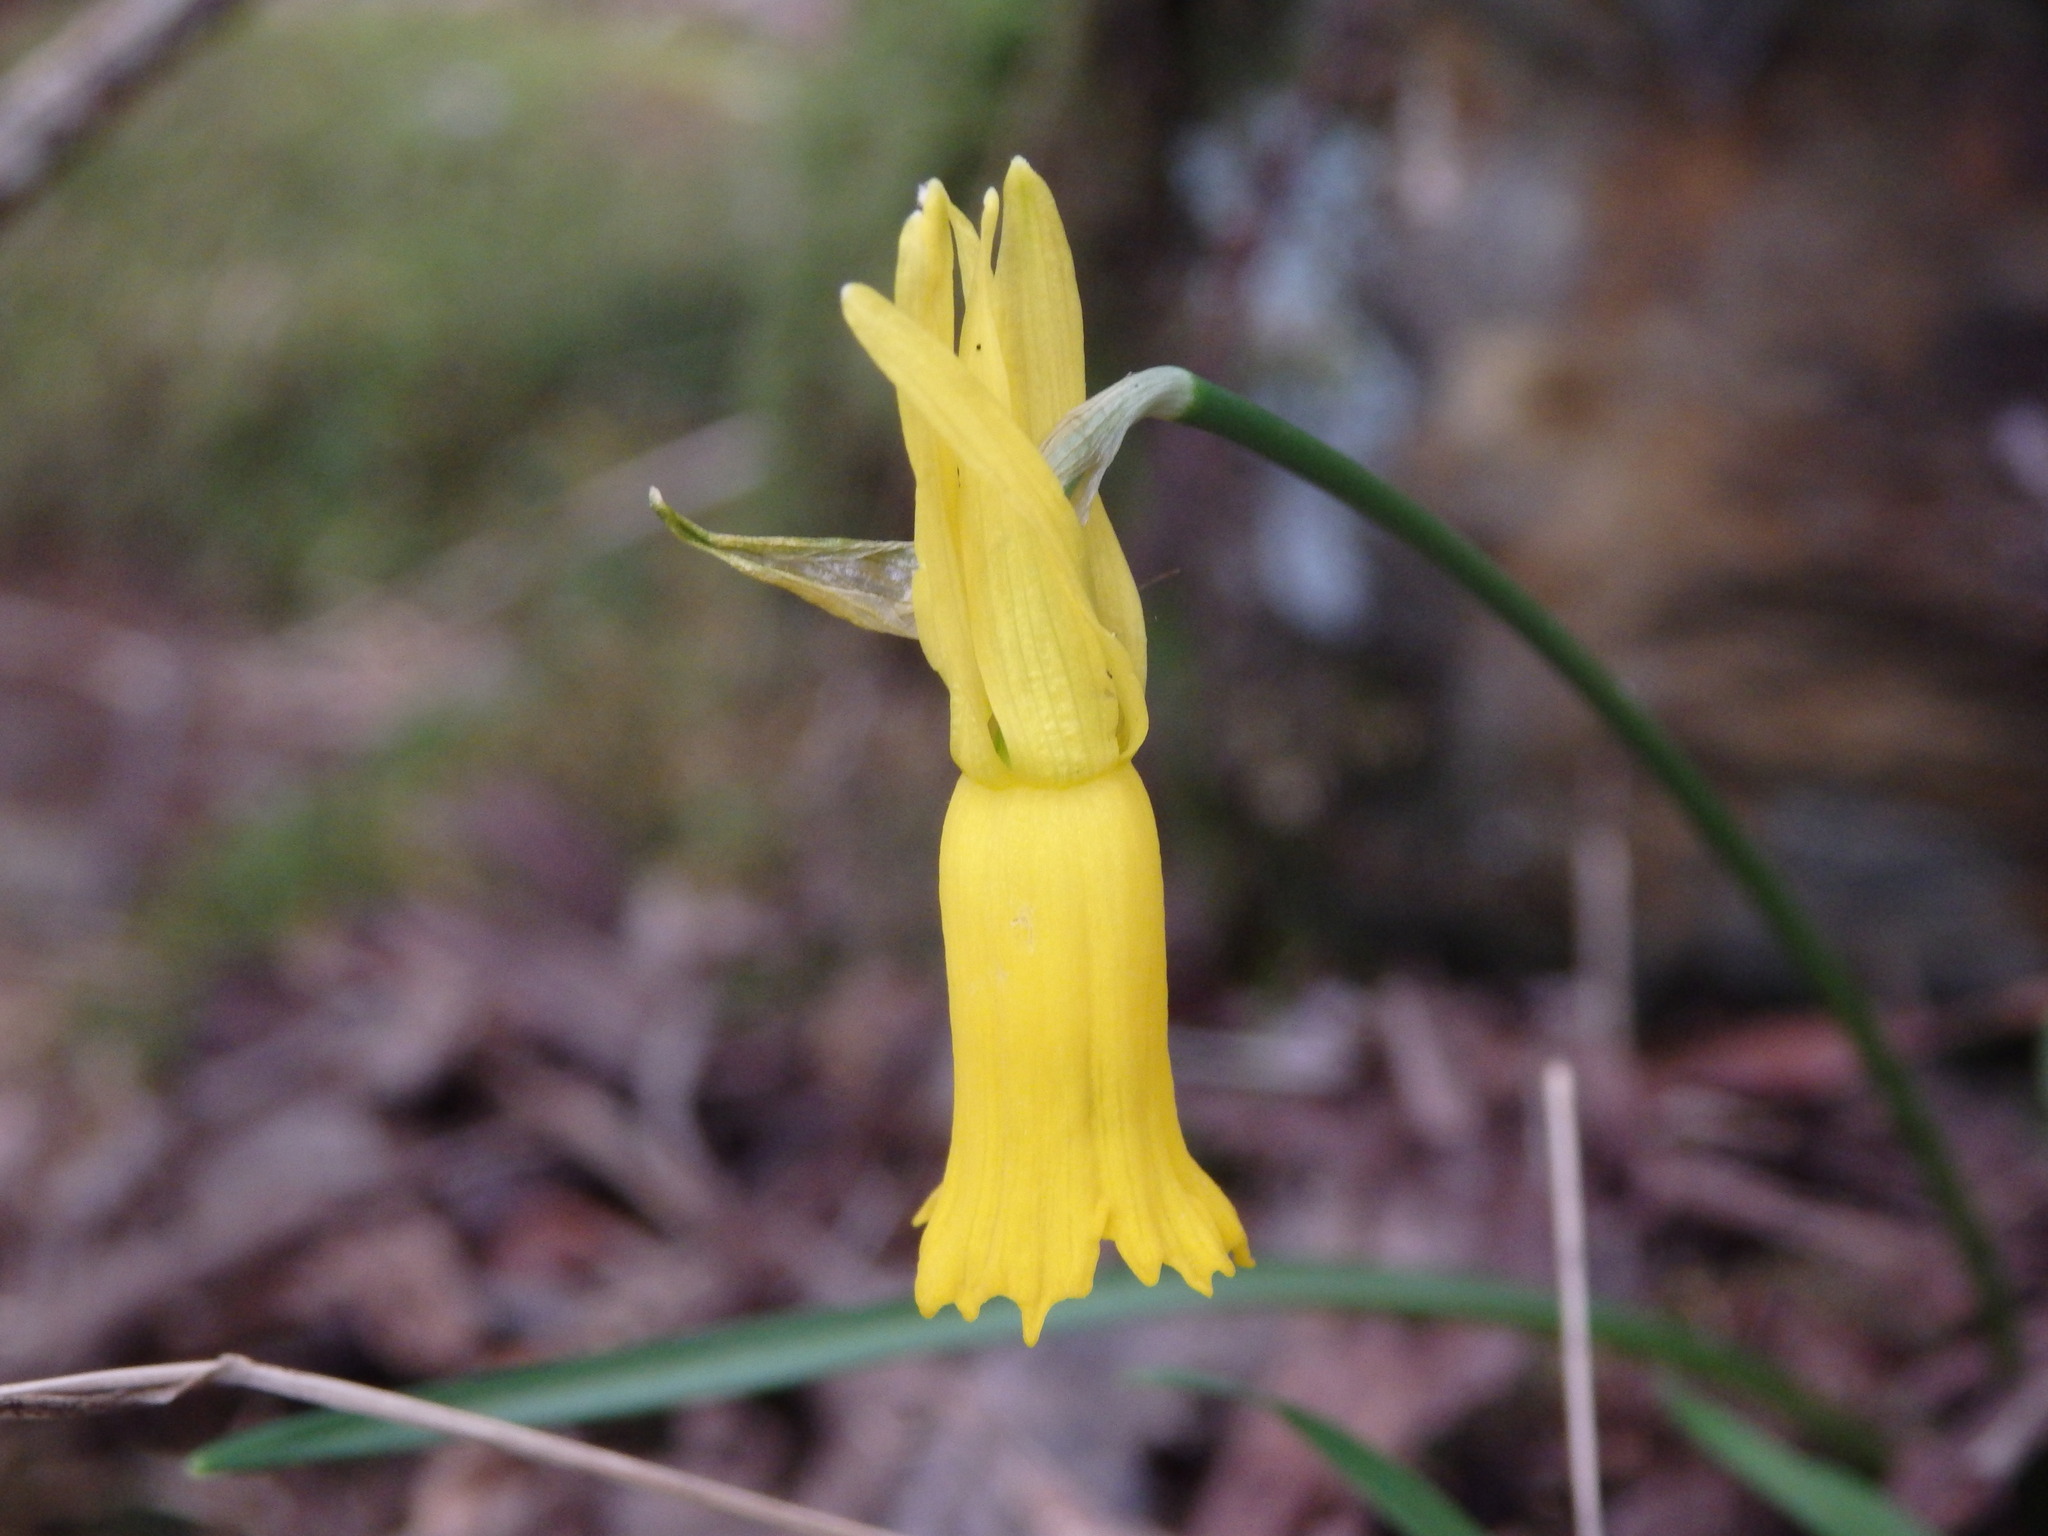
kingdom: Plantae
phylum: Tracheophyta
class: Liliopsida
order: Asparagales
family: Amaryllidaceae
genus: Narcissus
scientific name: Narcissus cyclamineus
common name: Cyclamen-flowered daffodil
